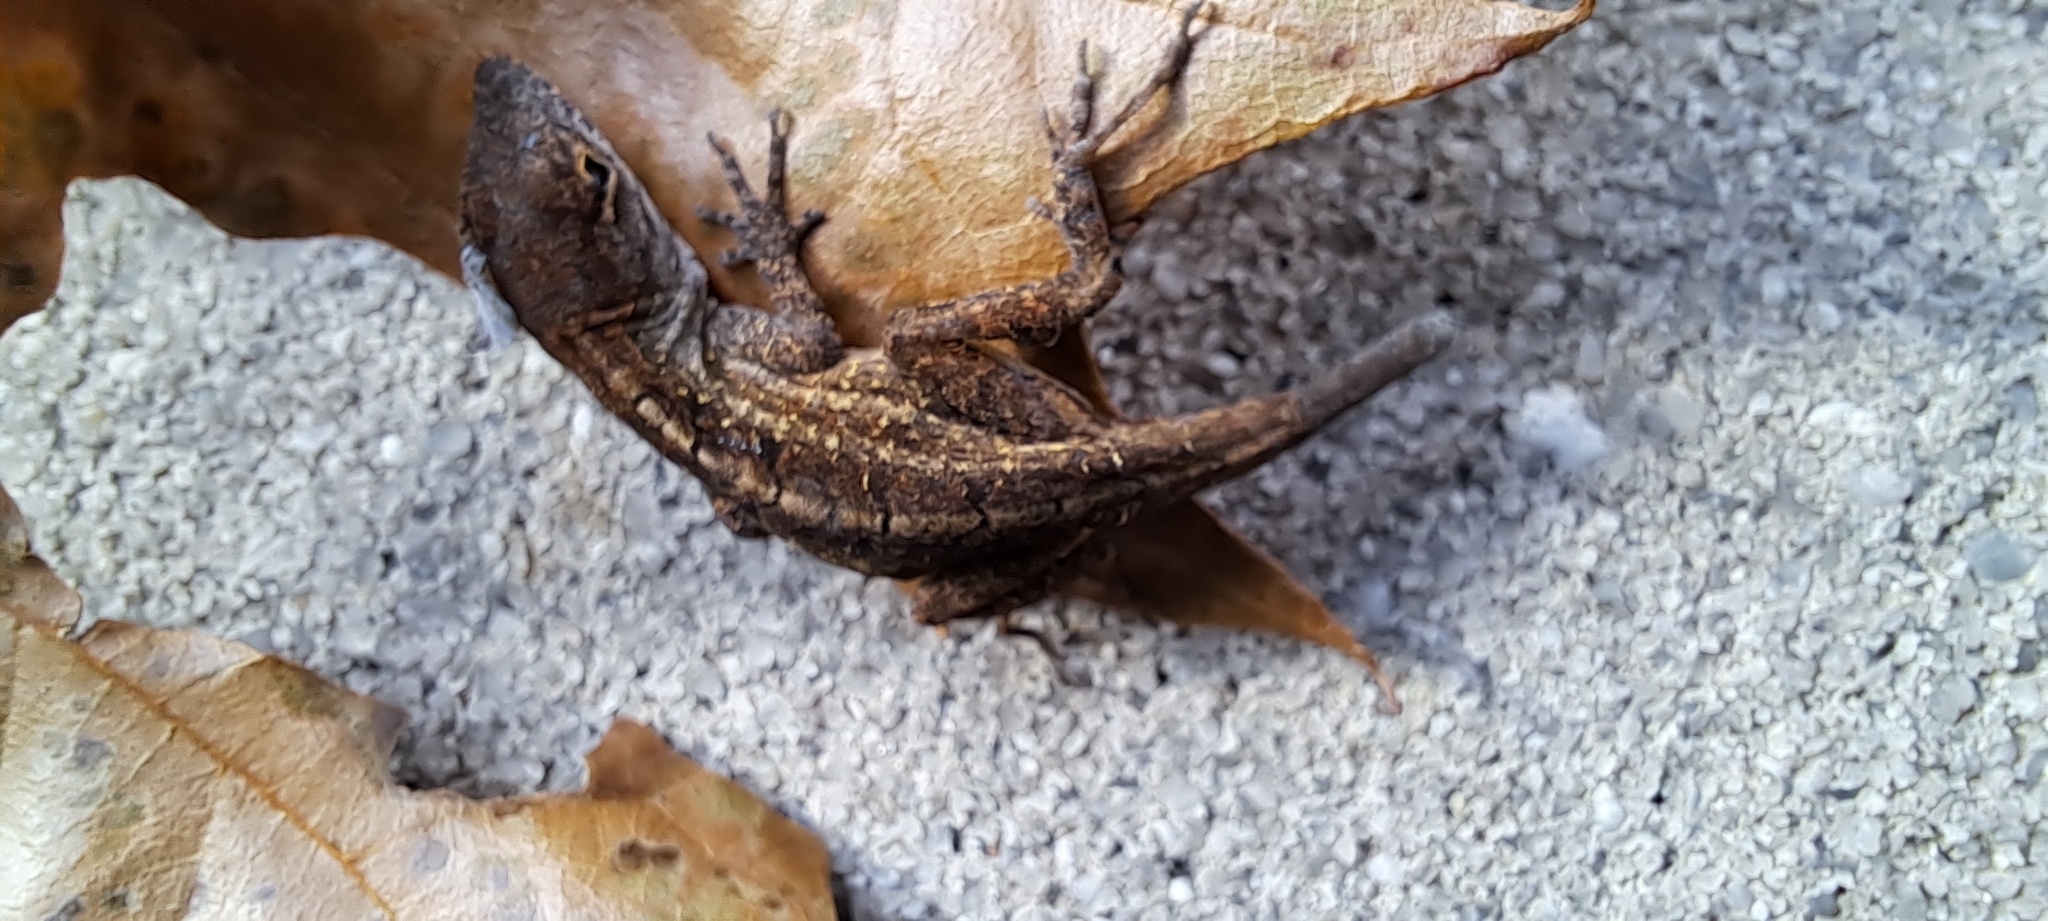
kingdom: Animalia
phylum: Chordata
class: Squamata
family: Dactyloidae
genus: Anolis
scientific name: Anolis sagrei
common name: Brown anole
